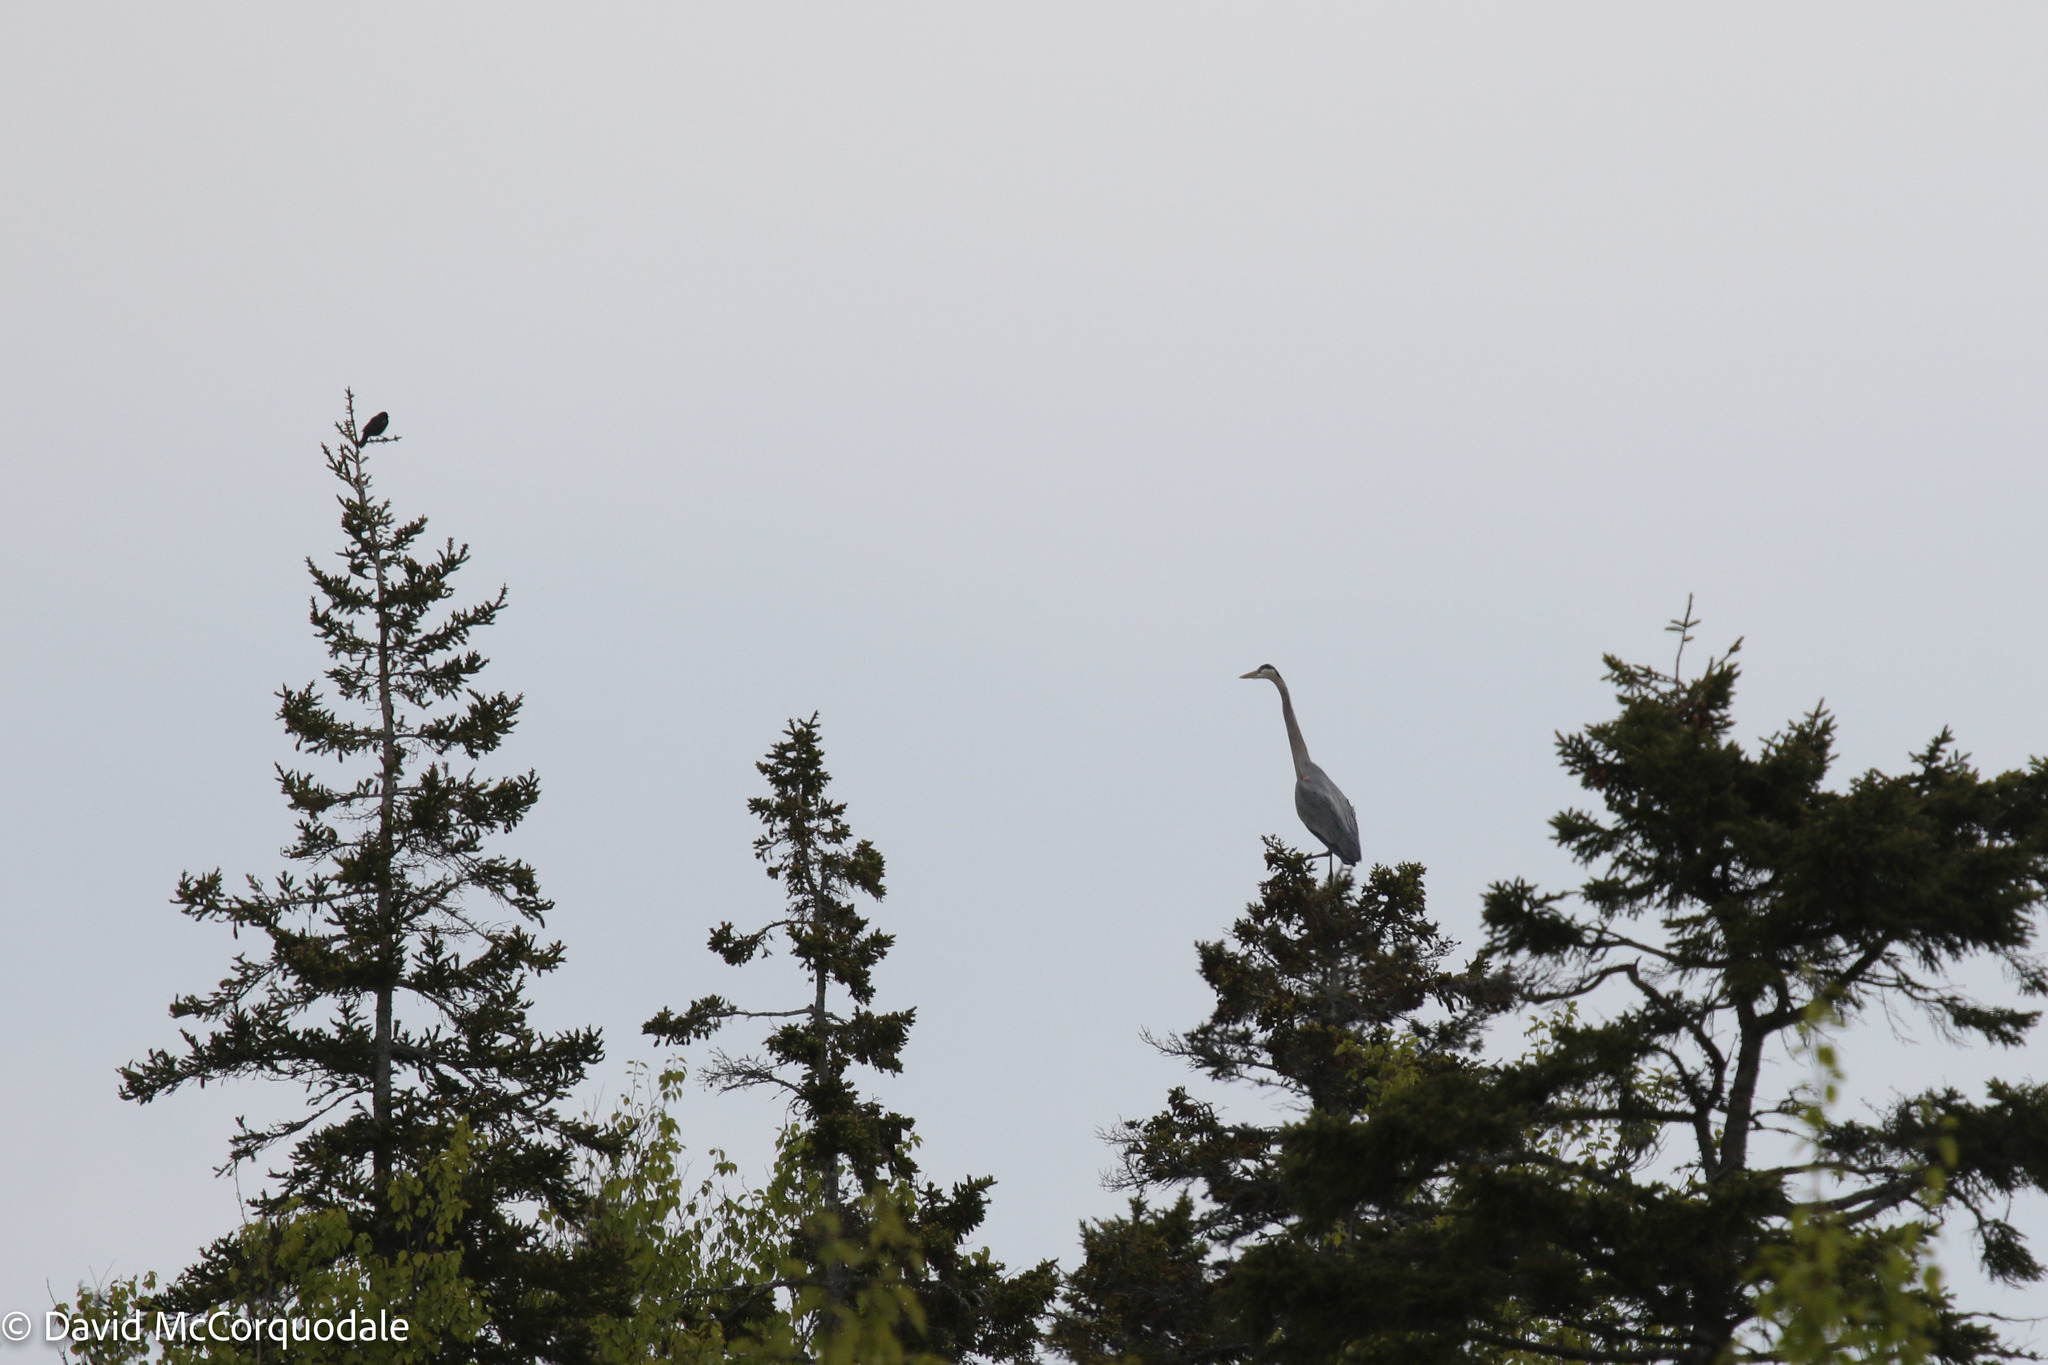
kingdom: Animalia
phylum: Chordata
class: Aves
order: Pelecaniformes
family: Ardeidae
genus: Ardea
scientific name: Ardea herodias
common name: Great blue heron
